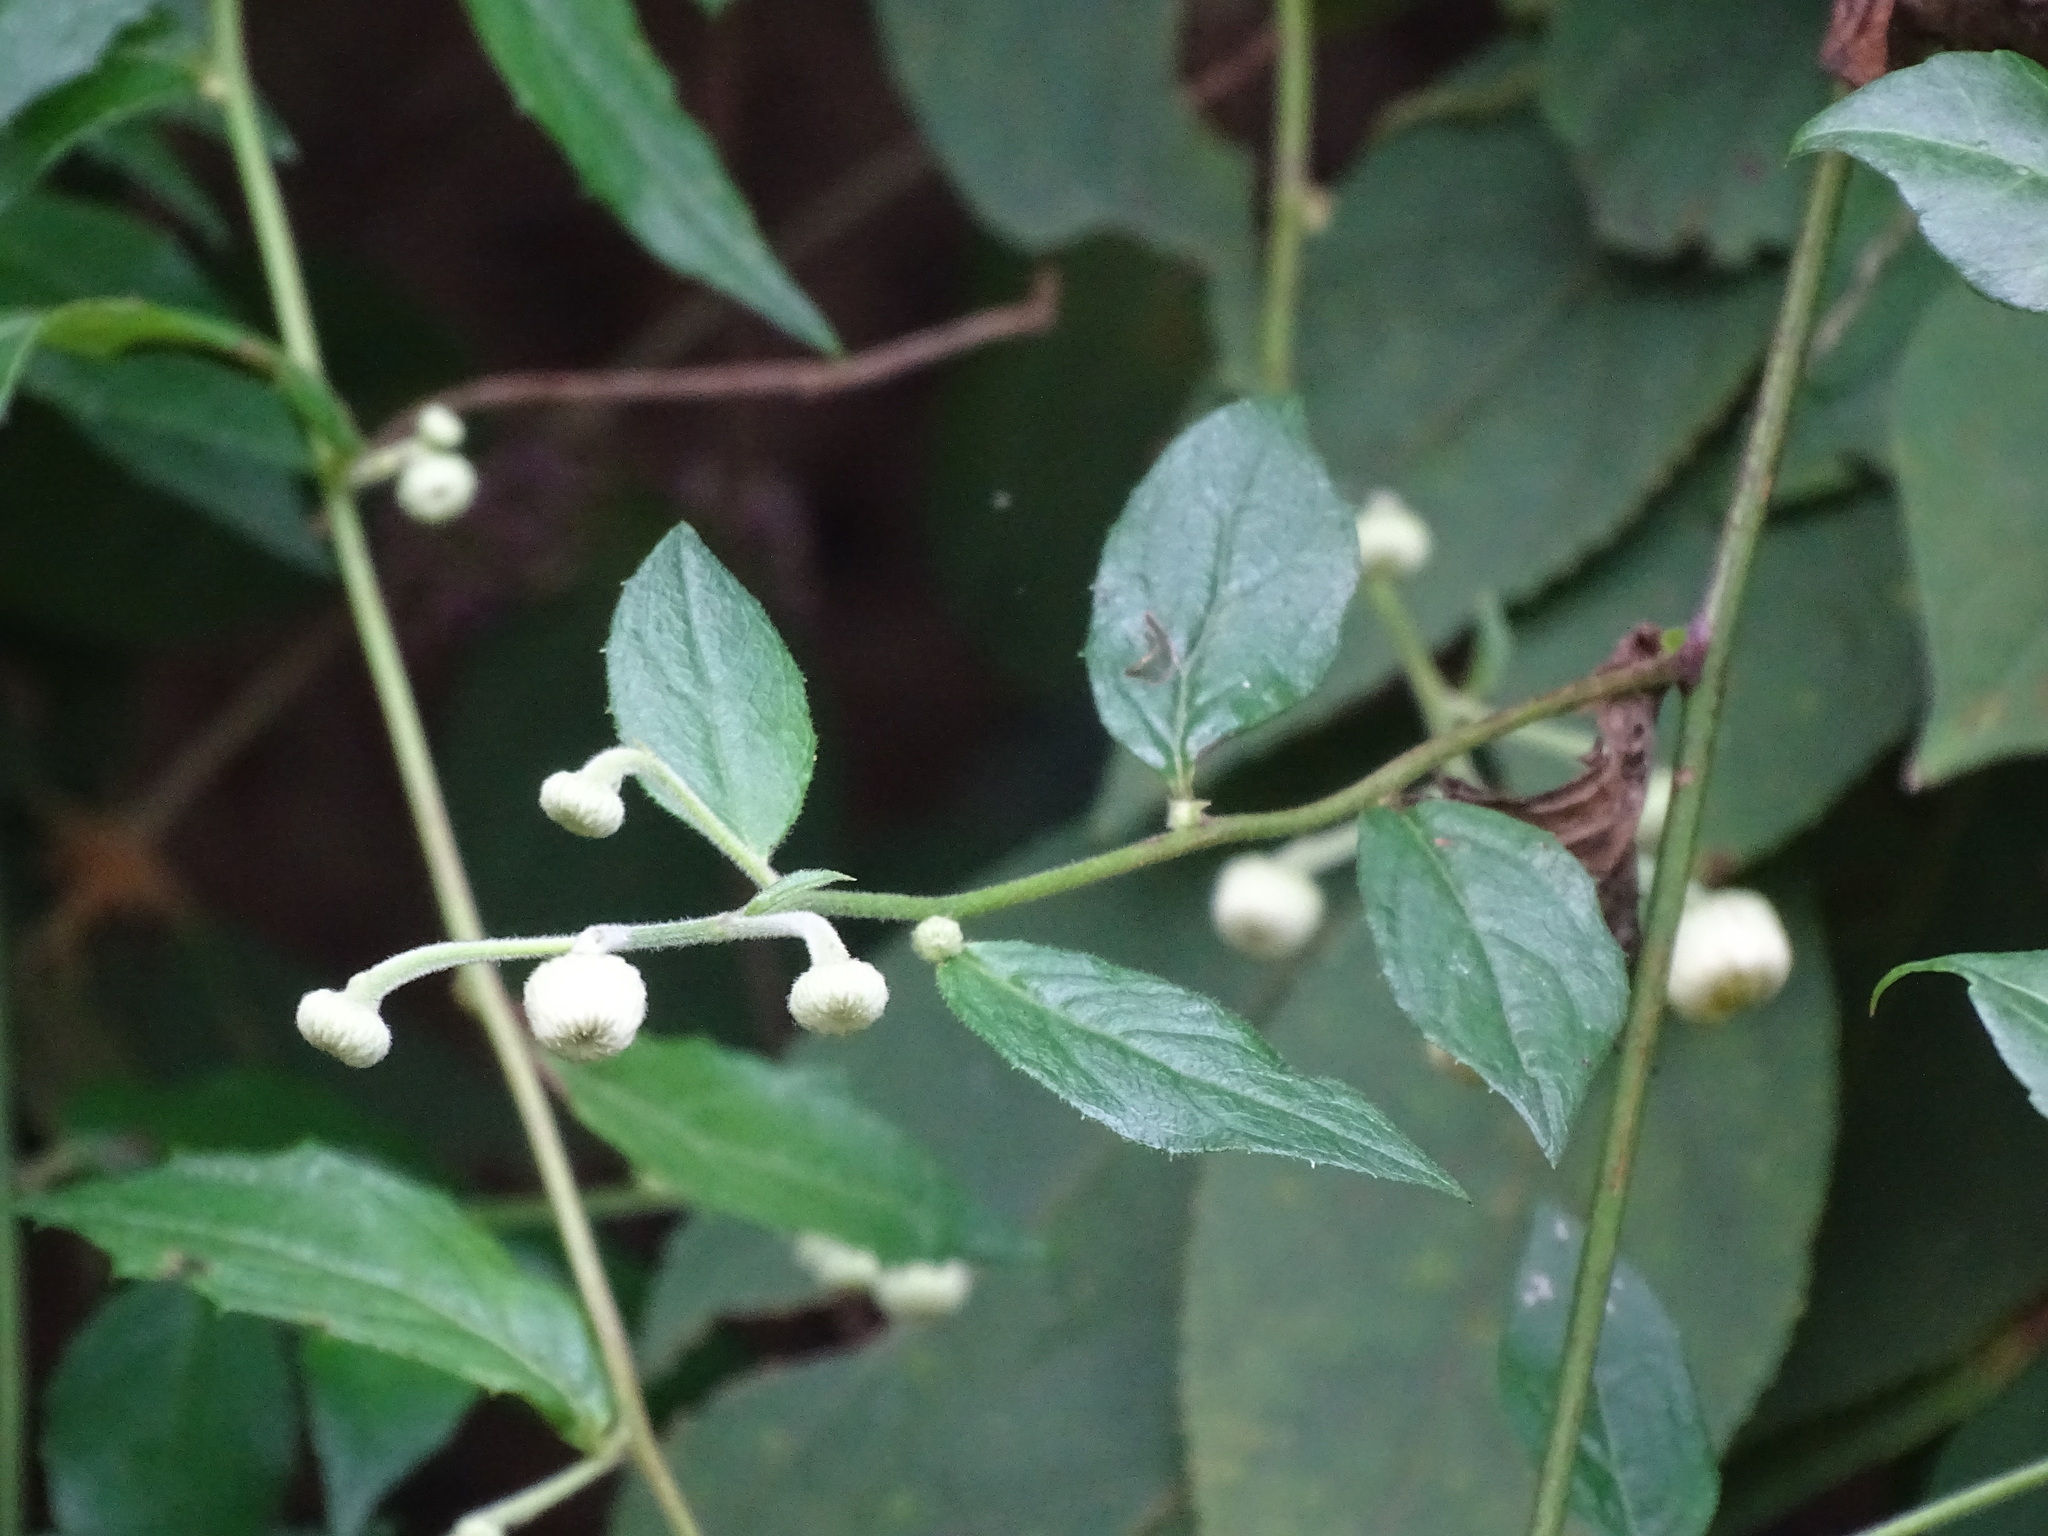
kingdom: Plantae
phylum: Tracheophyta
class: Magnoliopsida
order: Asterales
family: Asteraceae
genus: Blumea
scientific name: Blumea megacephala
